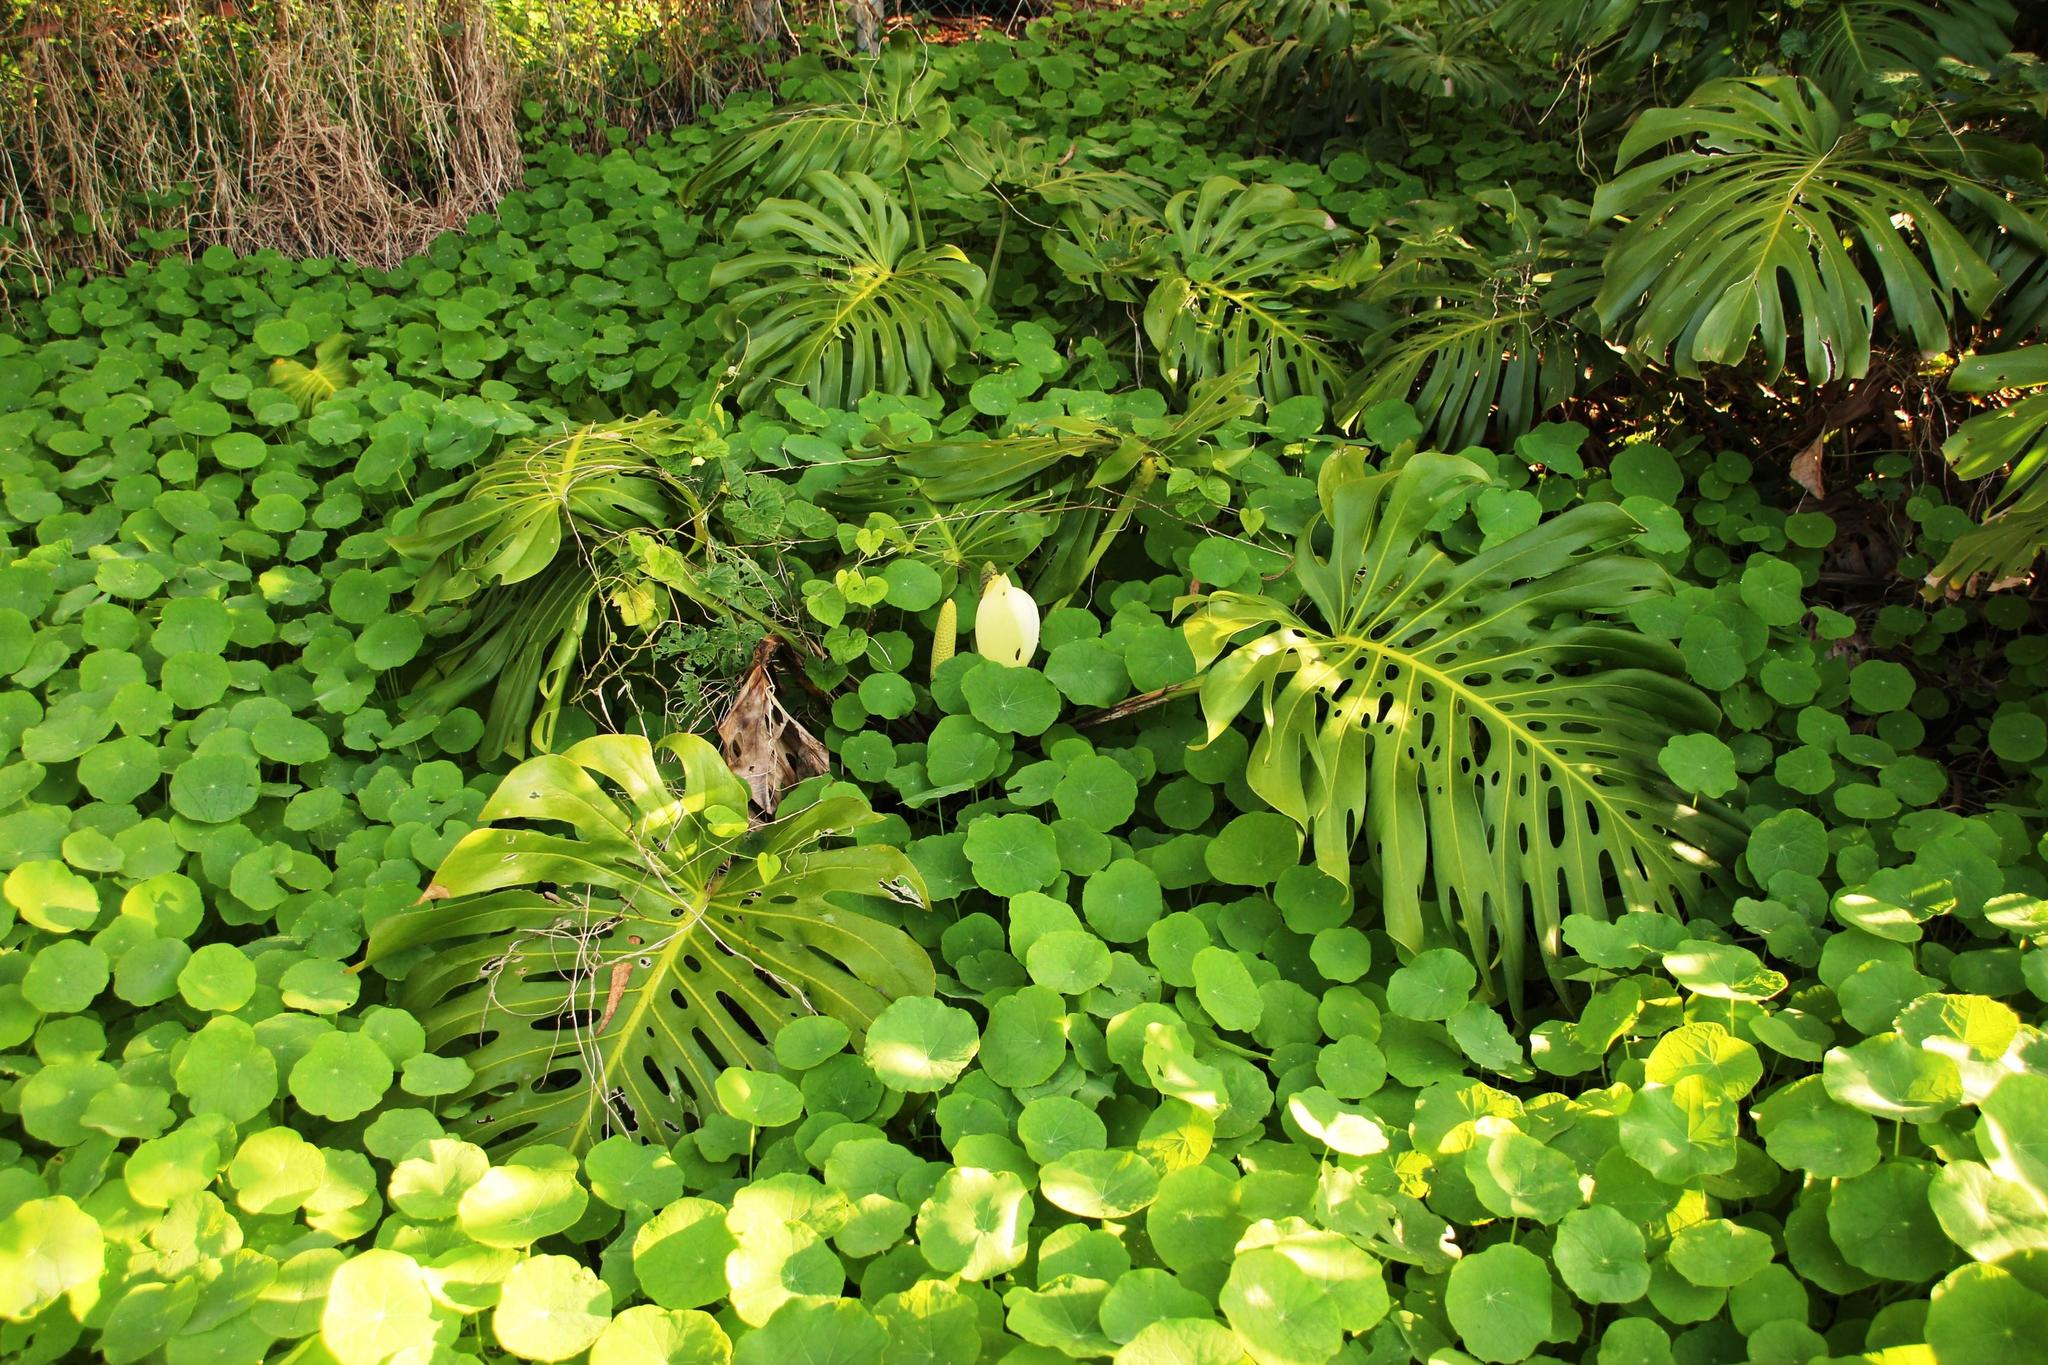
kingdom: Plantae
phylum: Tracheophyta
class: Magnoliopsida
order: Brassicales
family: Tropaeolaceae
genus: Tropaeolum
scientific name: Tropaeolum majus
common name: Nasturtium
